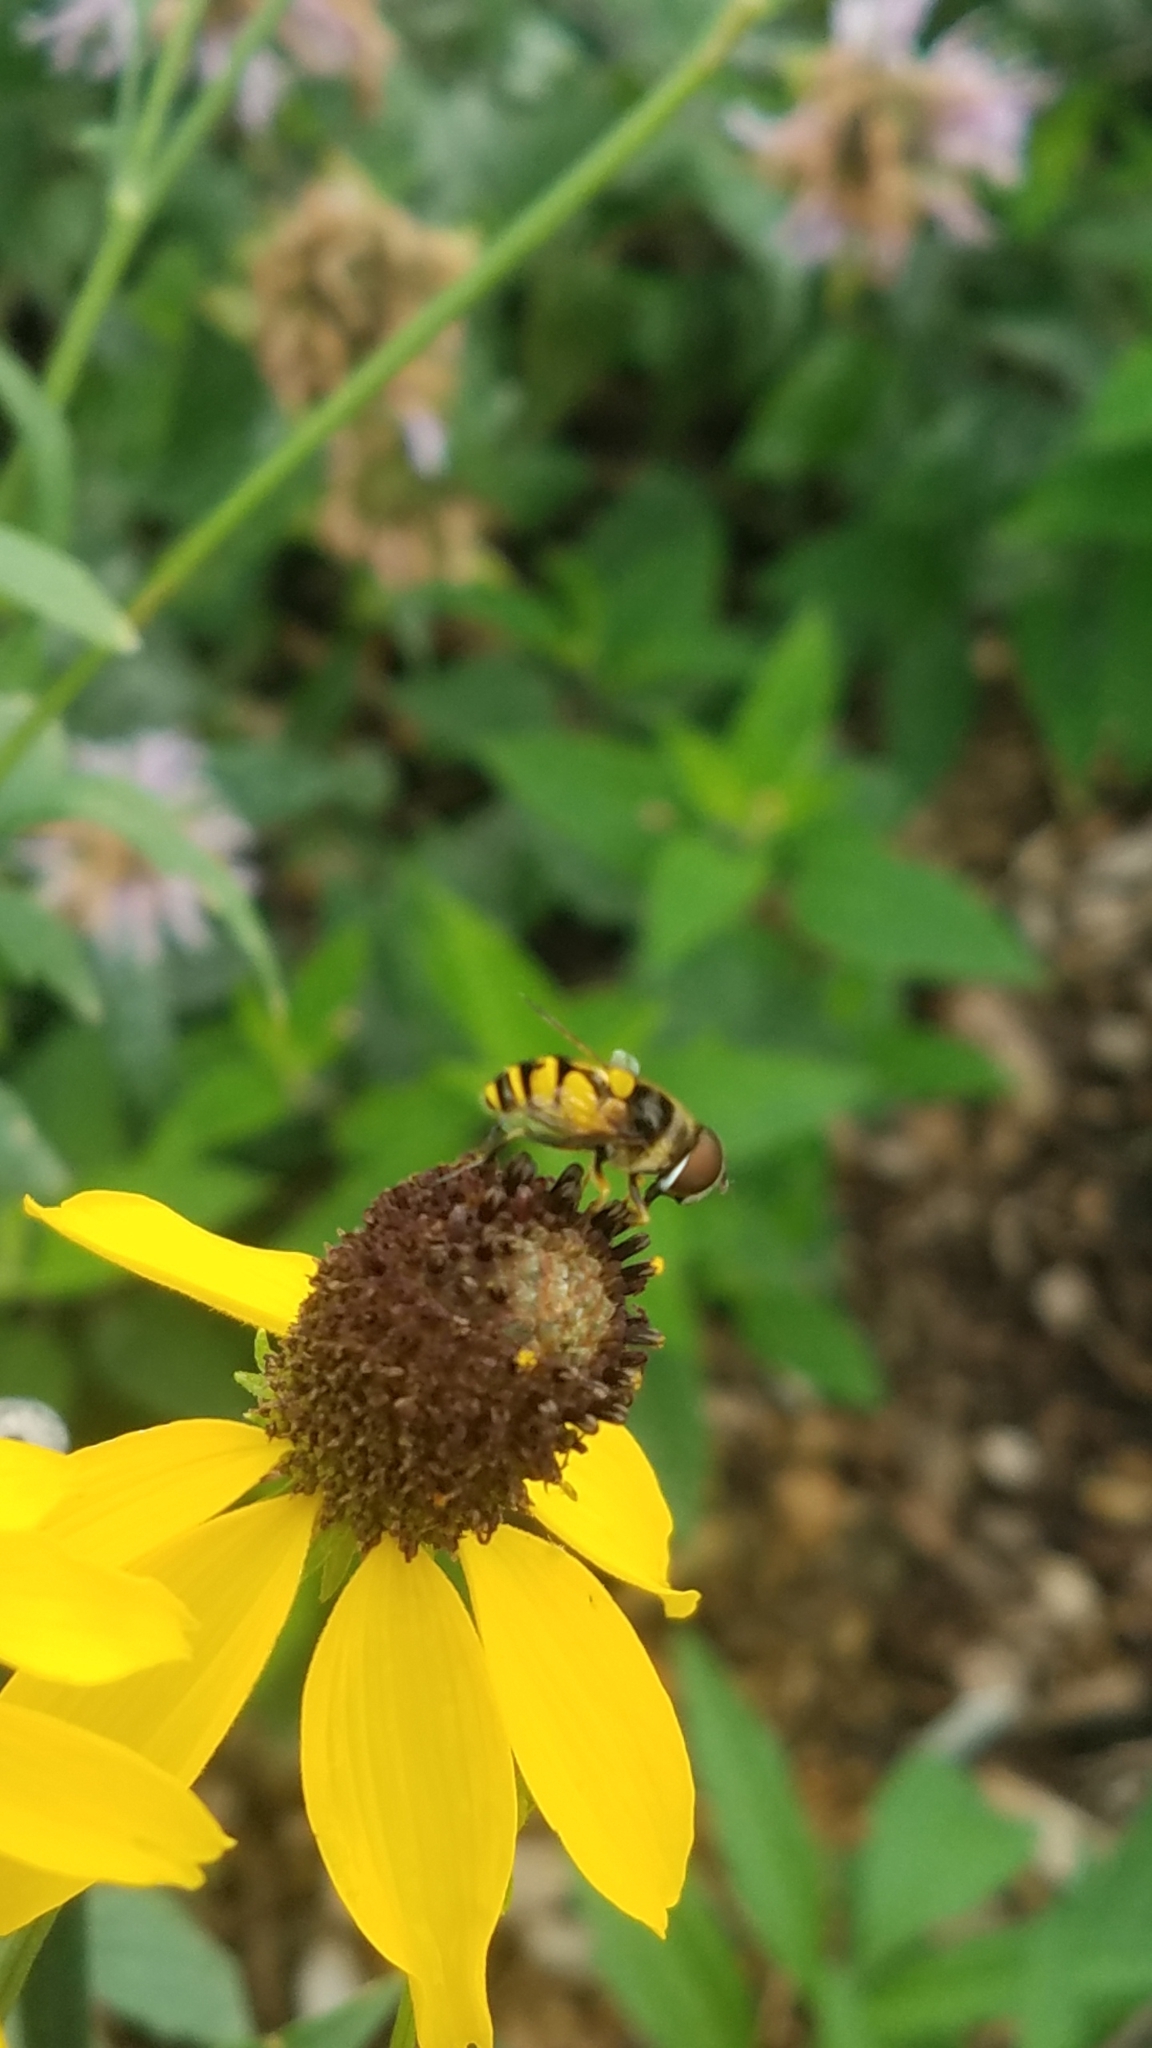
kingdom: Animalia
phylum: Arthropoda
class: Insecta
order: Diptera
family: Syrphidae
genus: Eristalis
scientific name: Eristalis transversa
